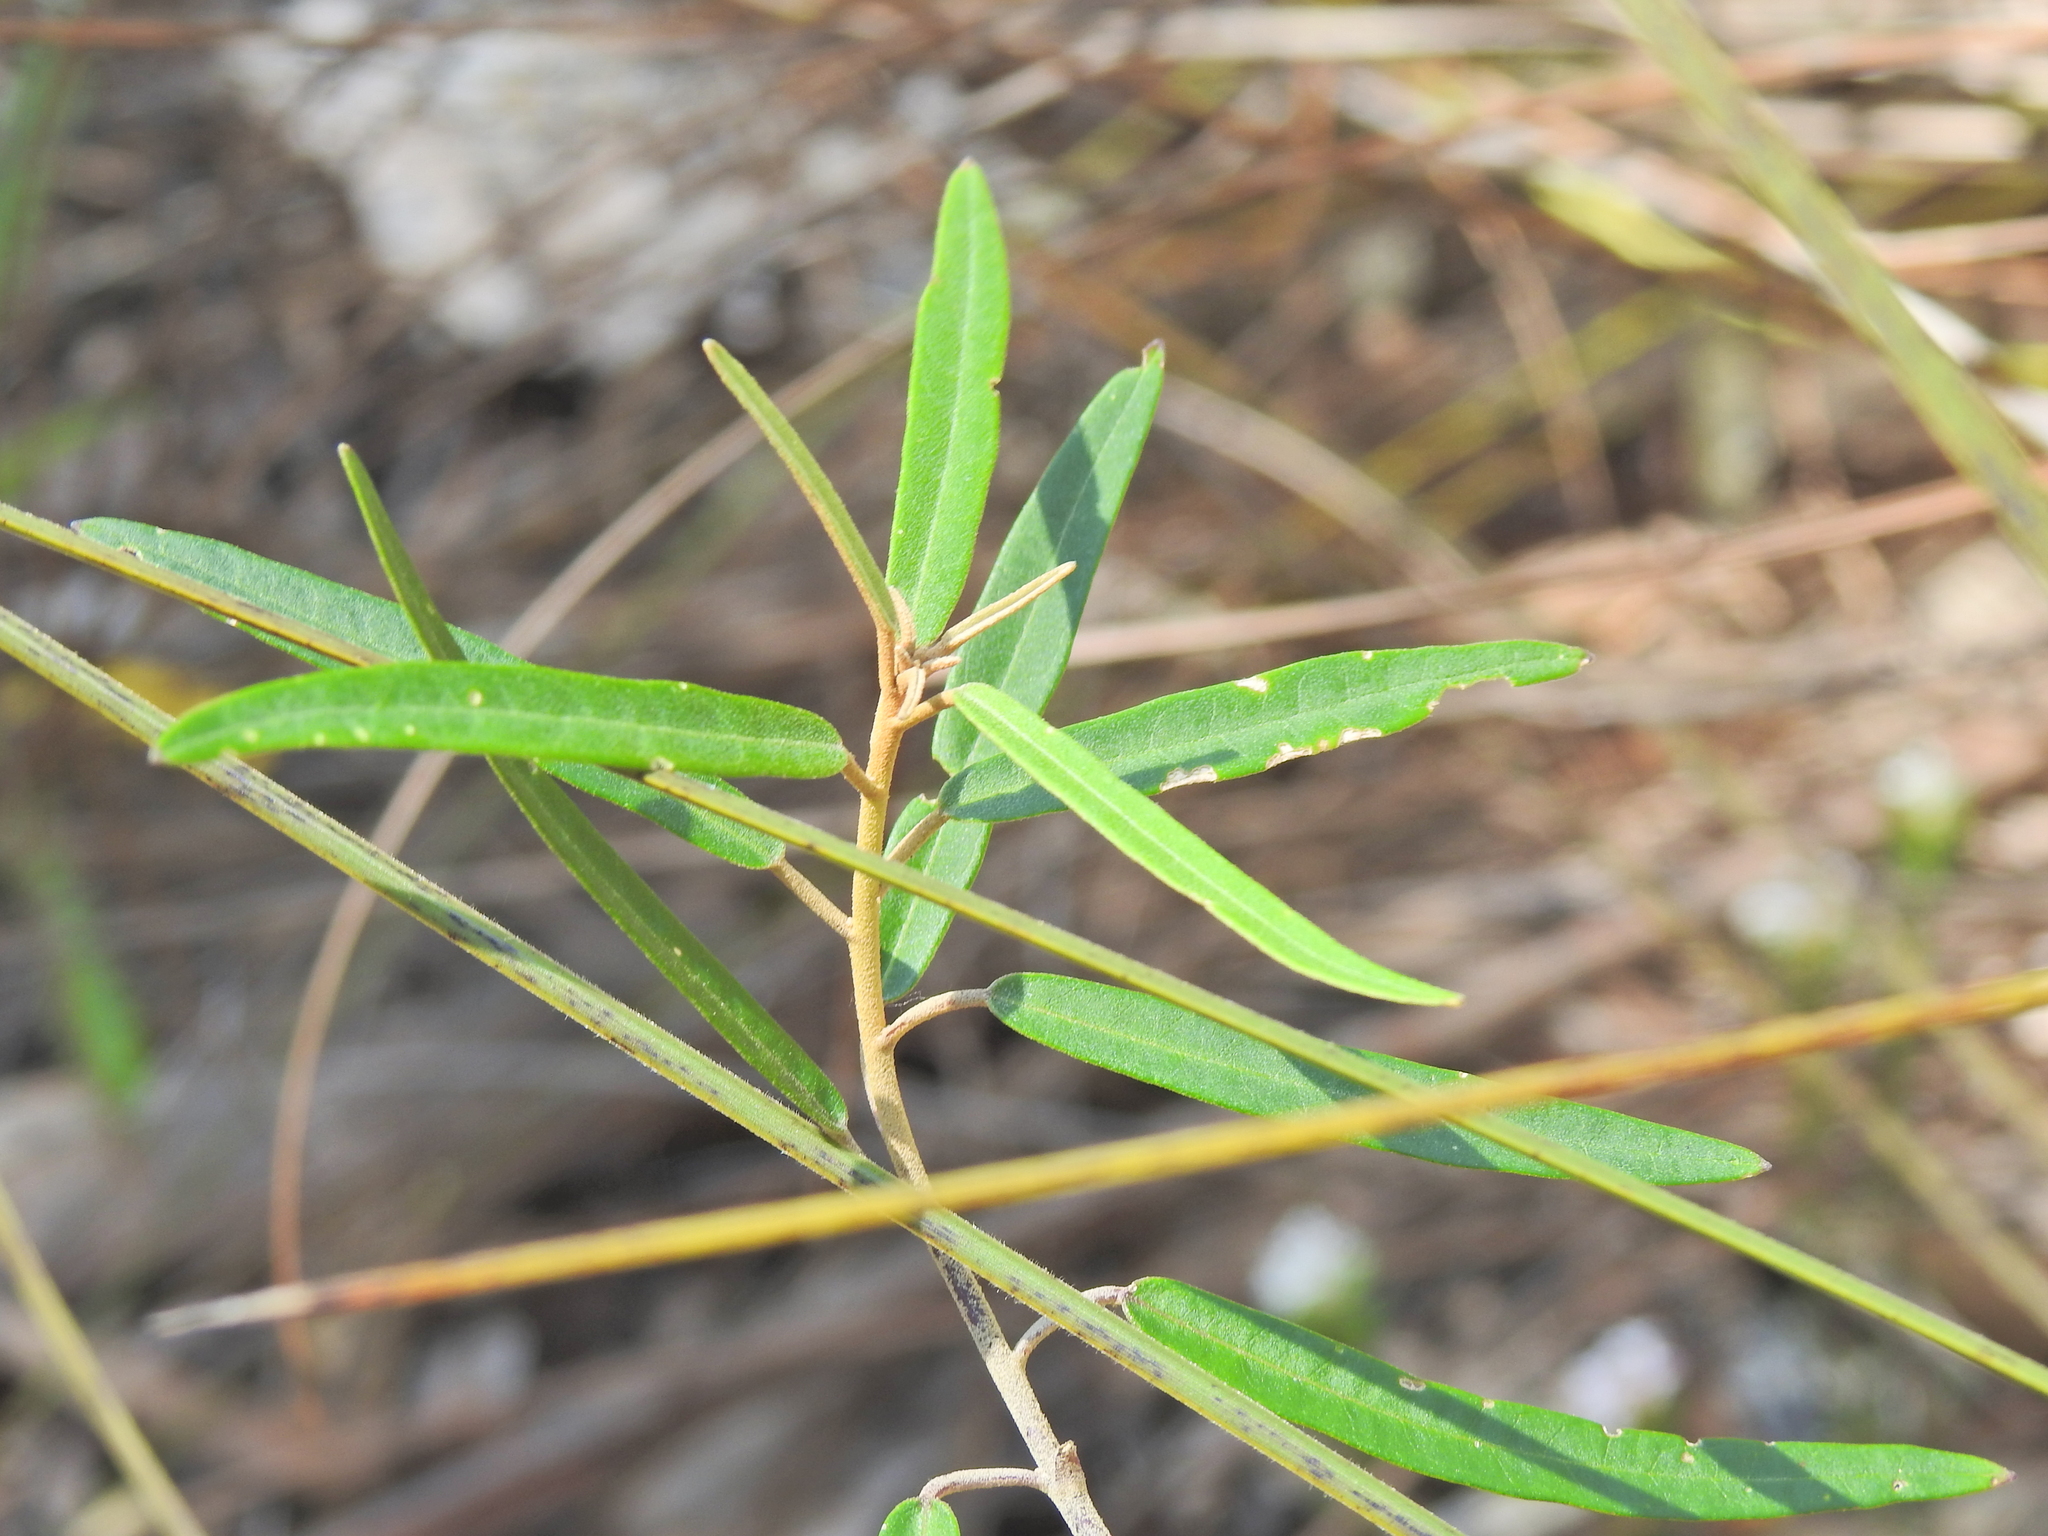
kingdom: Plantae
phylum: Tracheophyta
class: Magnoliopsida
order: Apiales
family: Araliaceae
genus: Astrotricha
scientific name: Astrotricha longifolia
